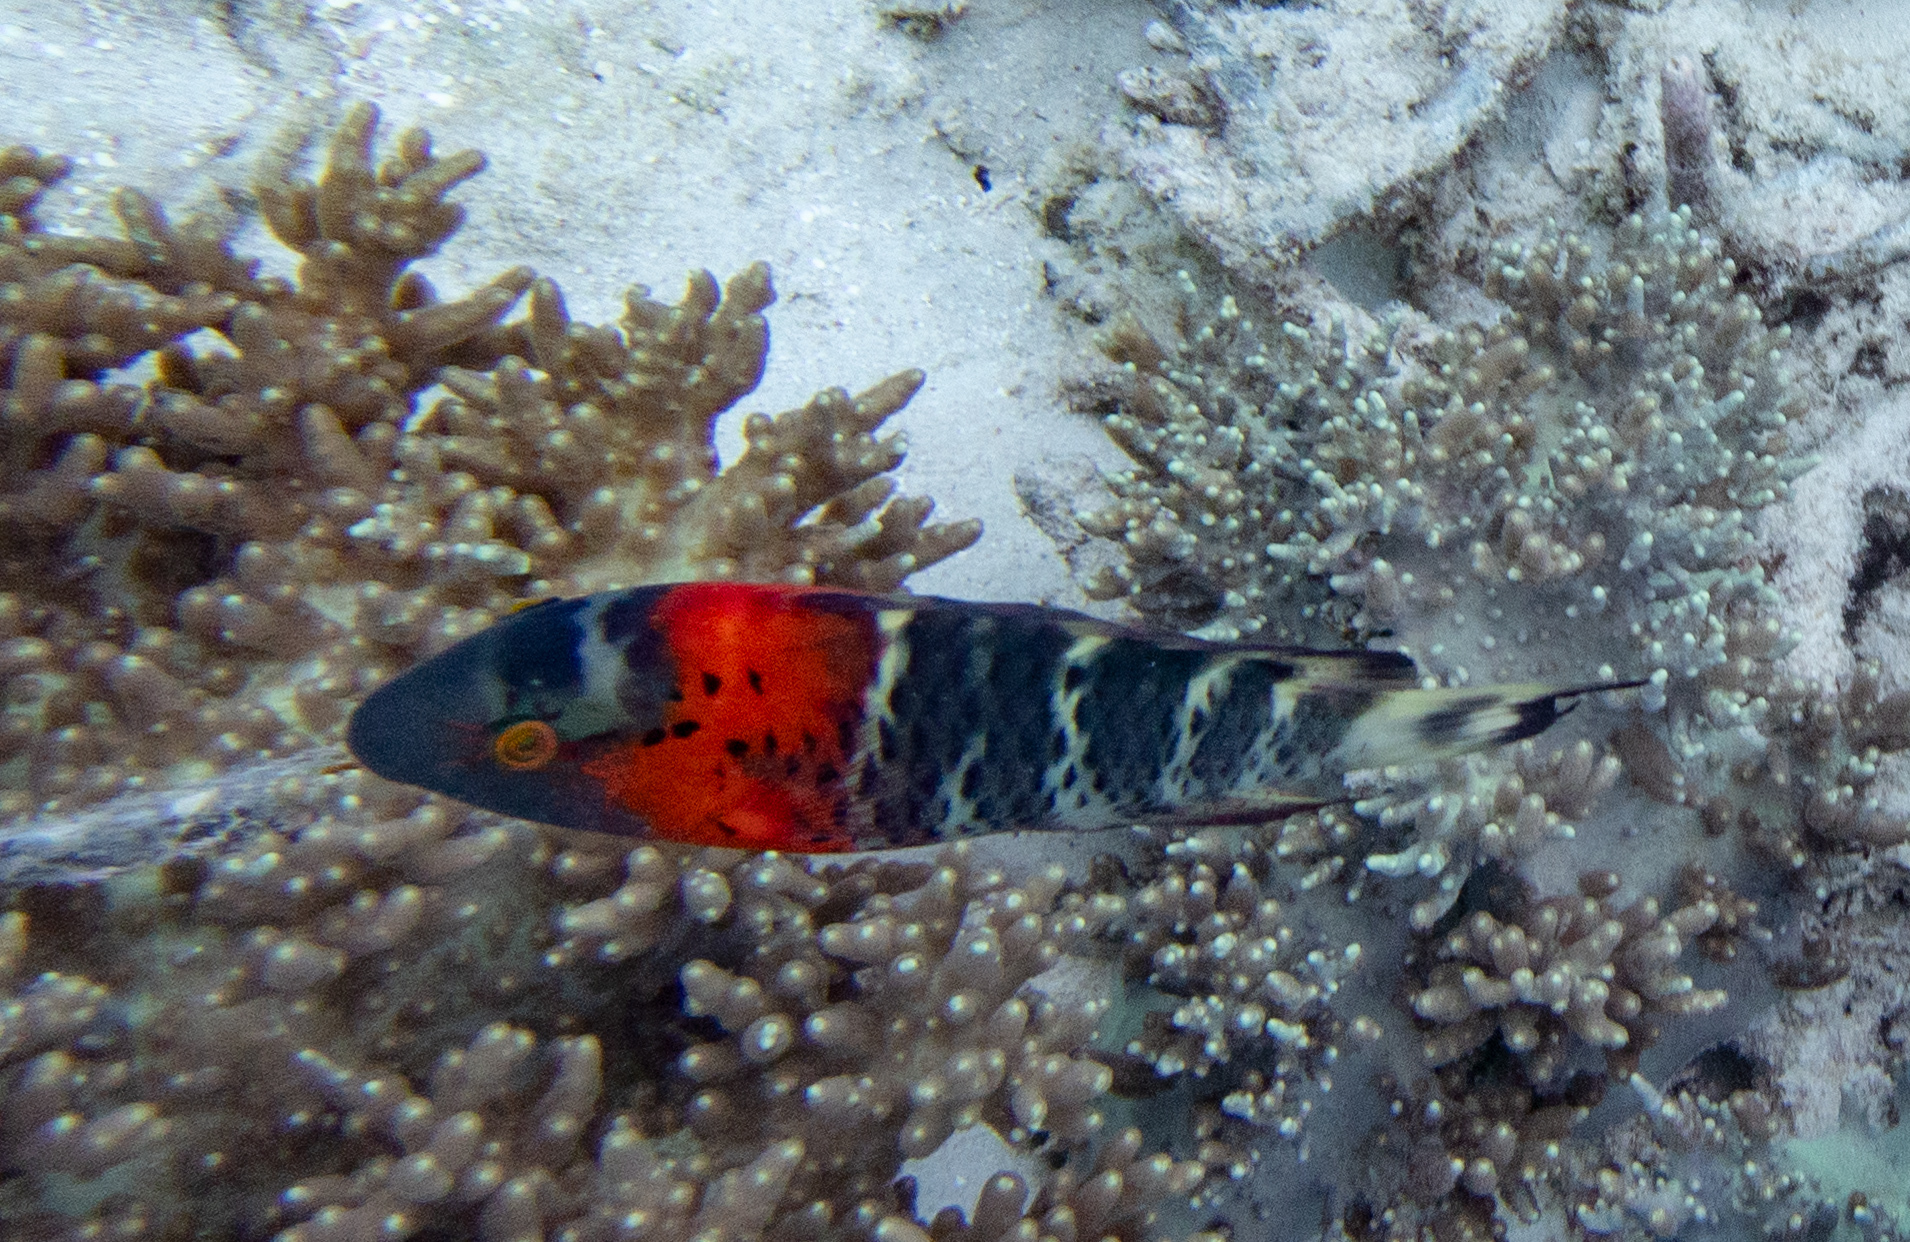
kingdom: Animalia
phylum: Chordata
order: Perciformes
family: Labridae
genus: Cheilinus
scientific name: Cheilinus fasciatus
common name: Red-breasted wrasse
